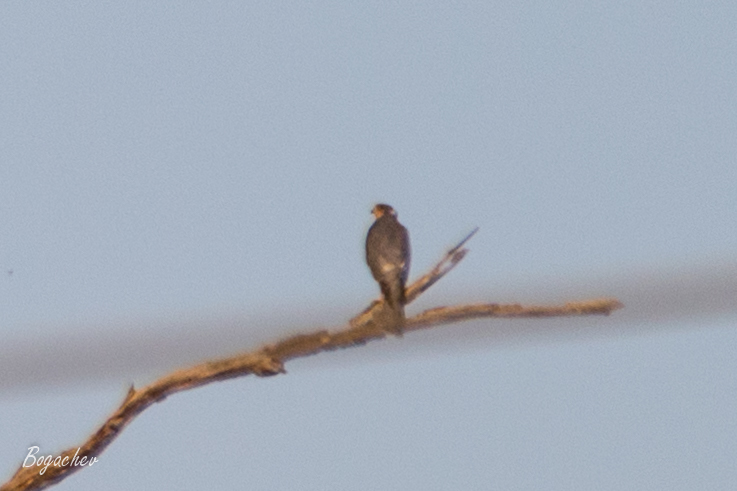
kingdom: Animalia
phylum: Chordata
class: Aves
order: Accipitriformes
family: Accipitridae
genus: Accipiter
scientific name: Accipiter nisus
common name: Eurasian sparrowhawk
